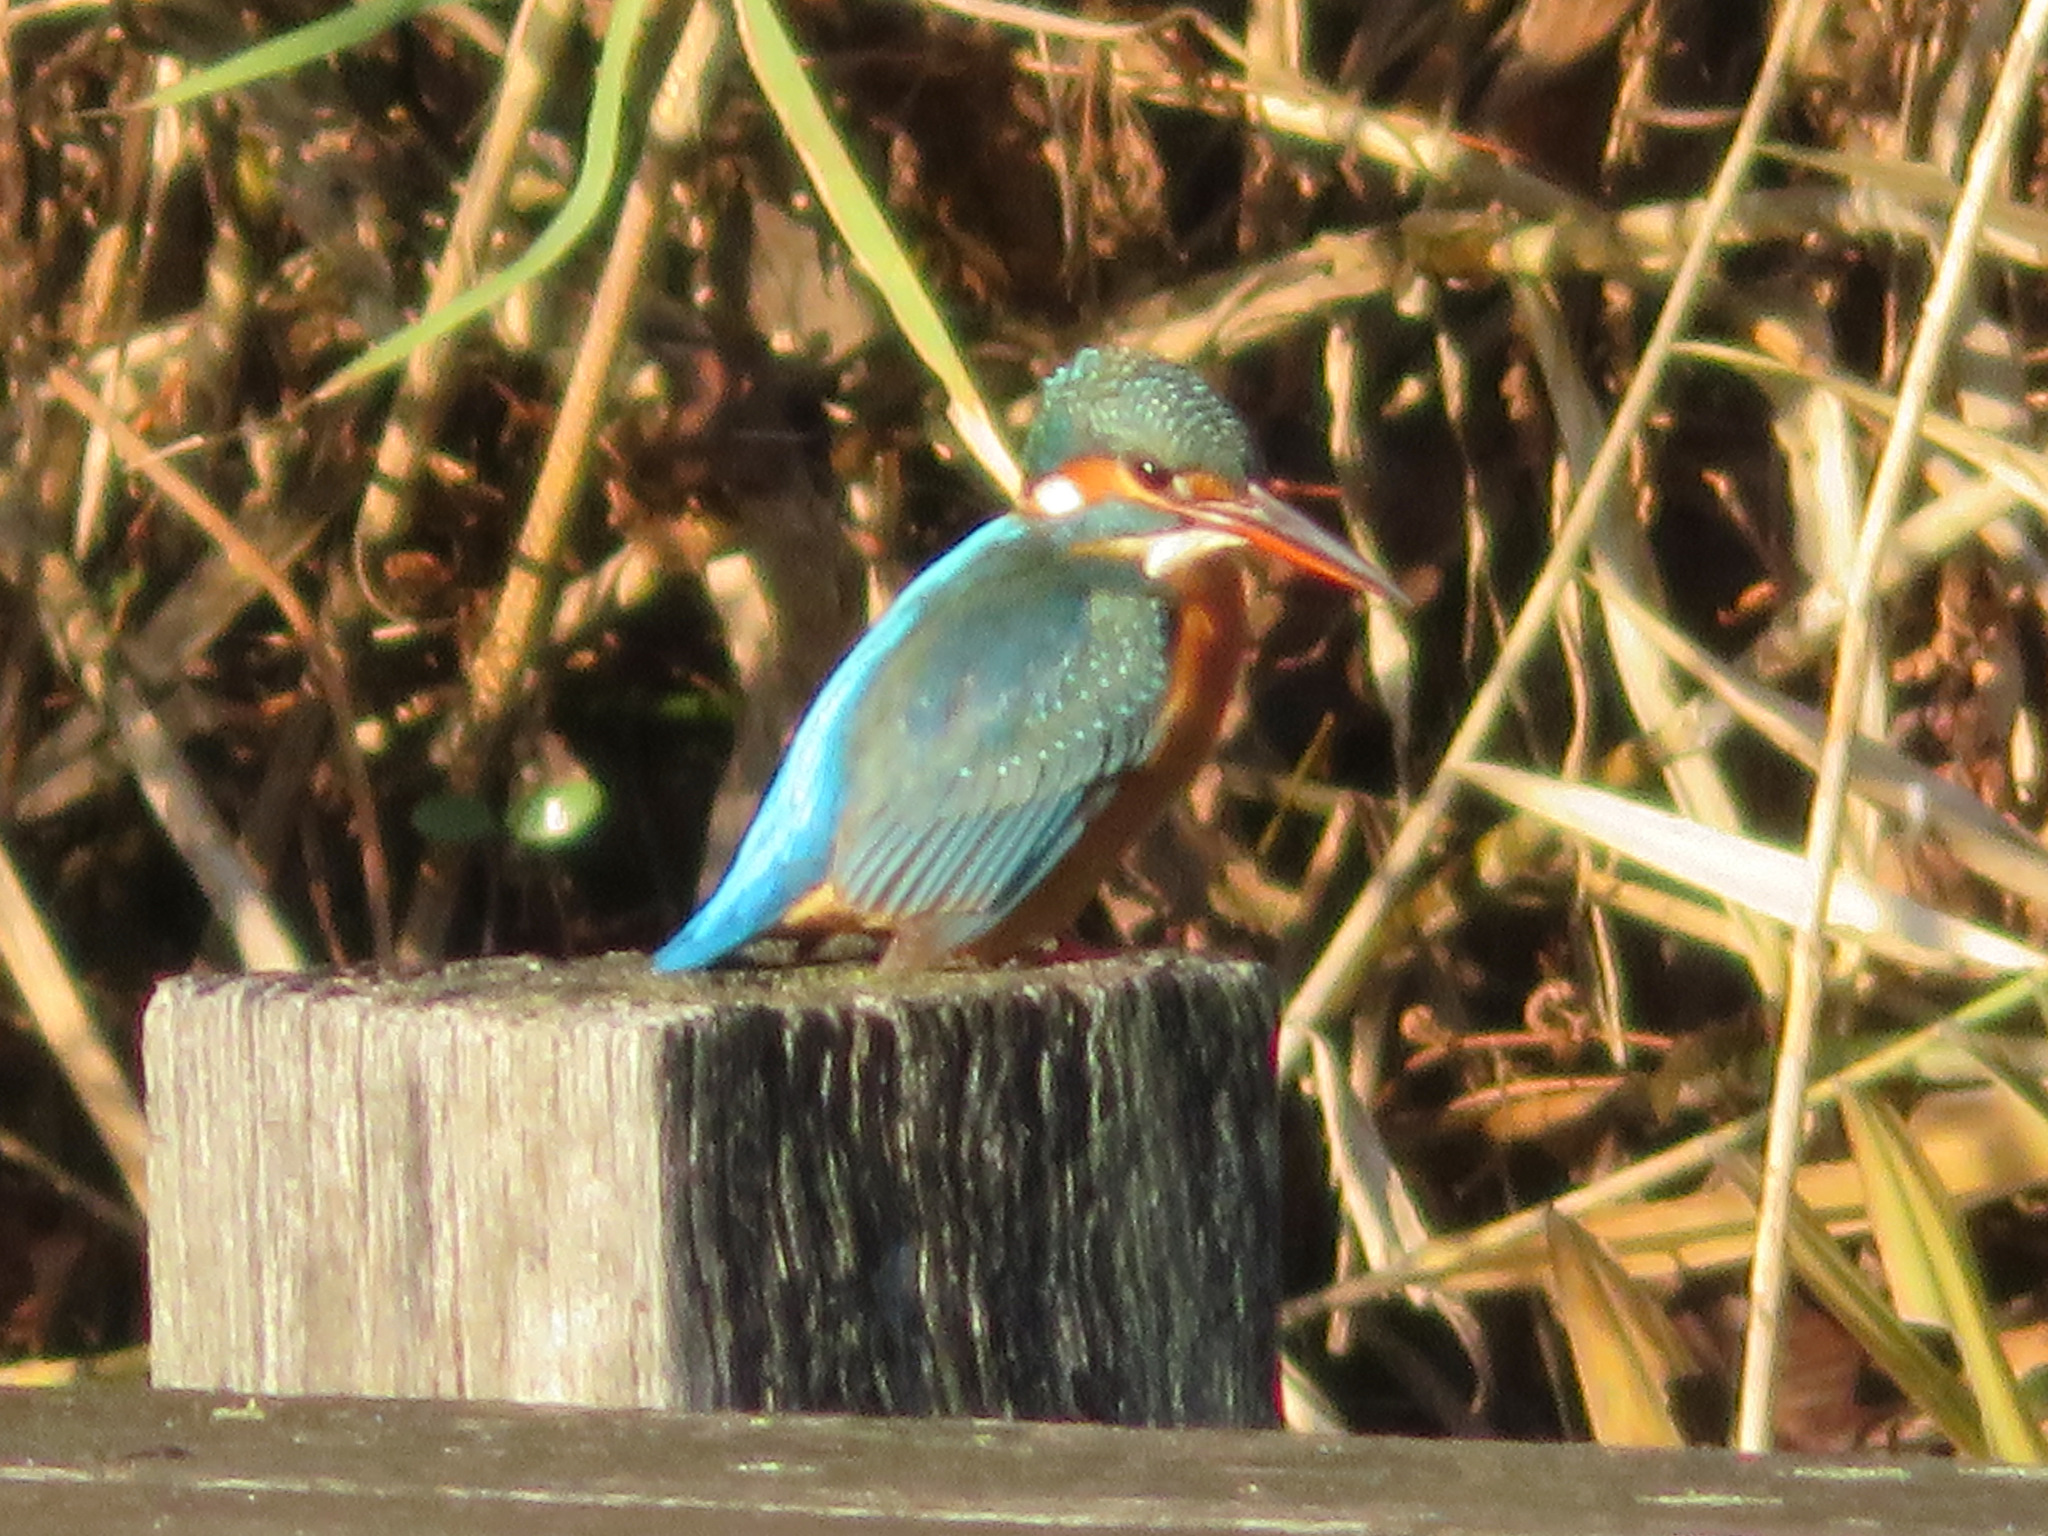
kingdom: Animalia
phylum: Chordata
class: Aves
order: Coraciiformes
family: Alcedinidae
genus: Alcedo
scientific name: Alcedo atthis
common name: Common kingfisher
